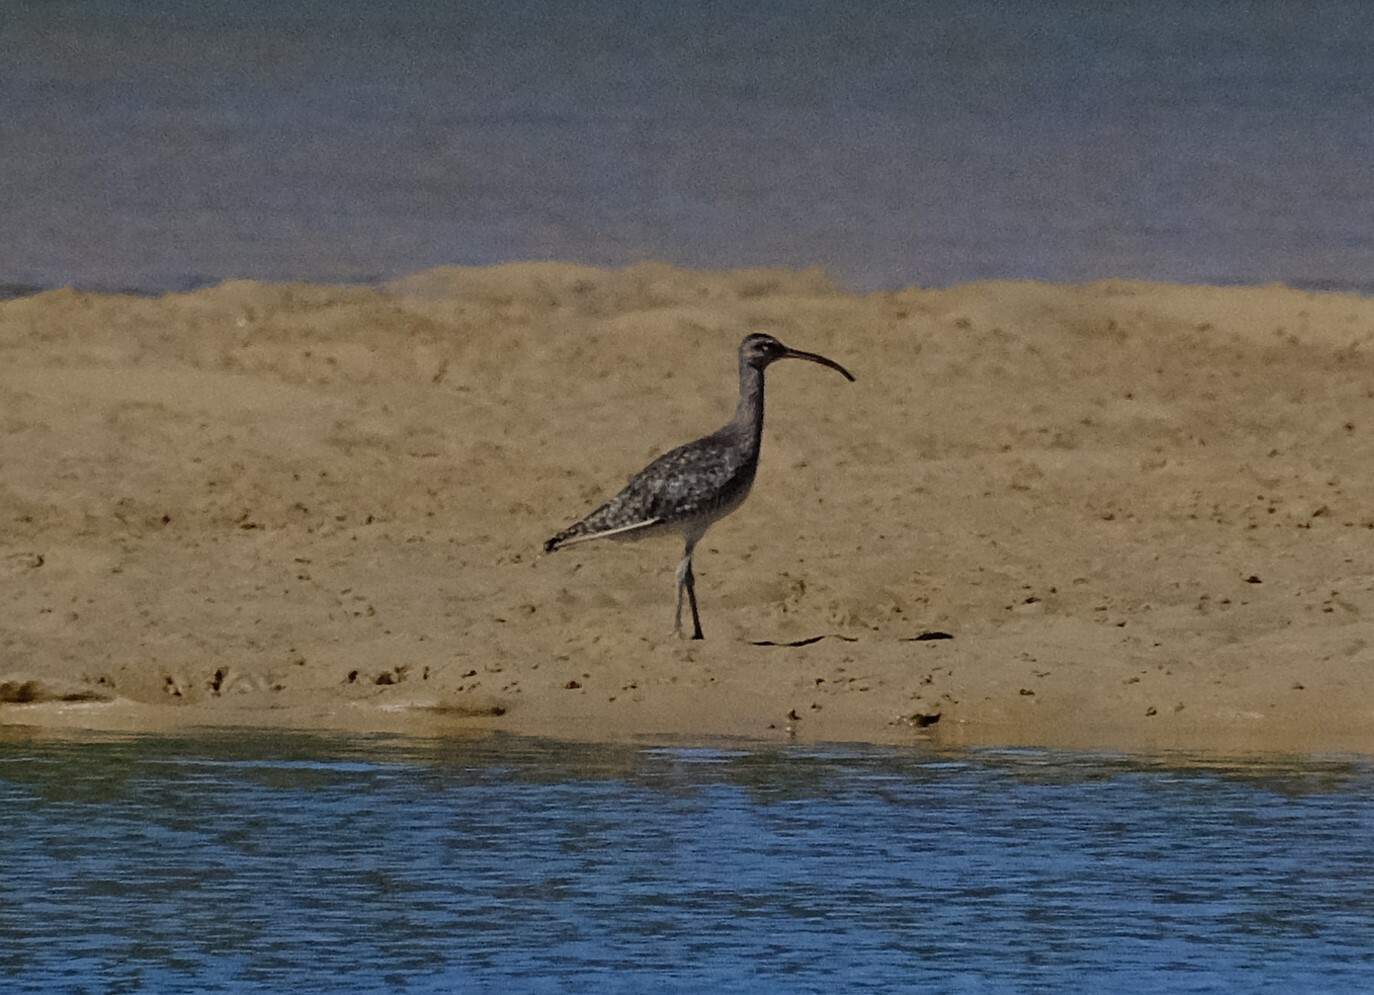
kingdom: Animalia
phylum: Chordata
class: Aves
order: Charadriiformes
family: Scolopacidae
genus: Numenius
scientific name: Numenius phaeopus
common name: Whimbrel
